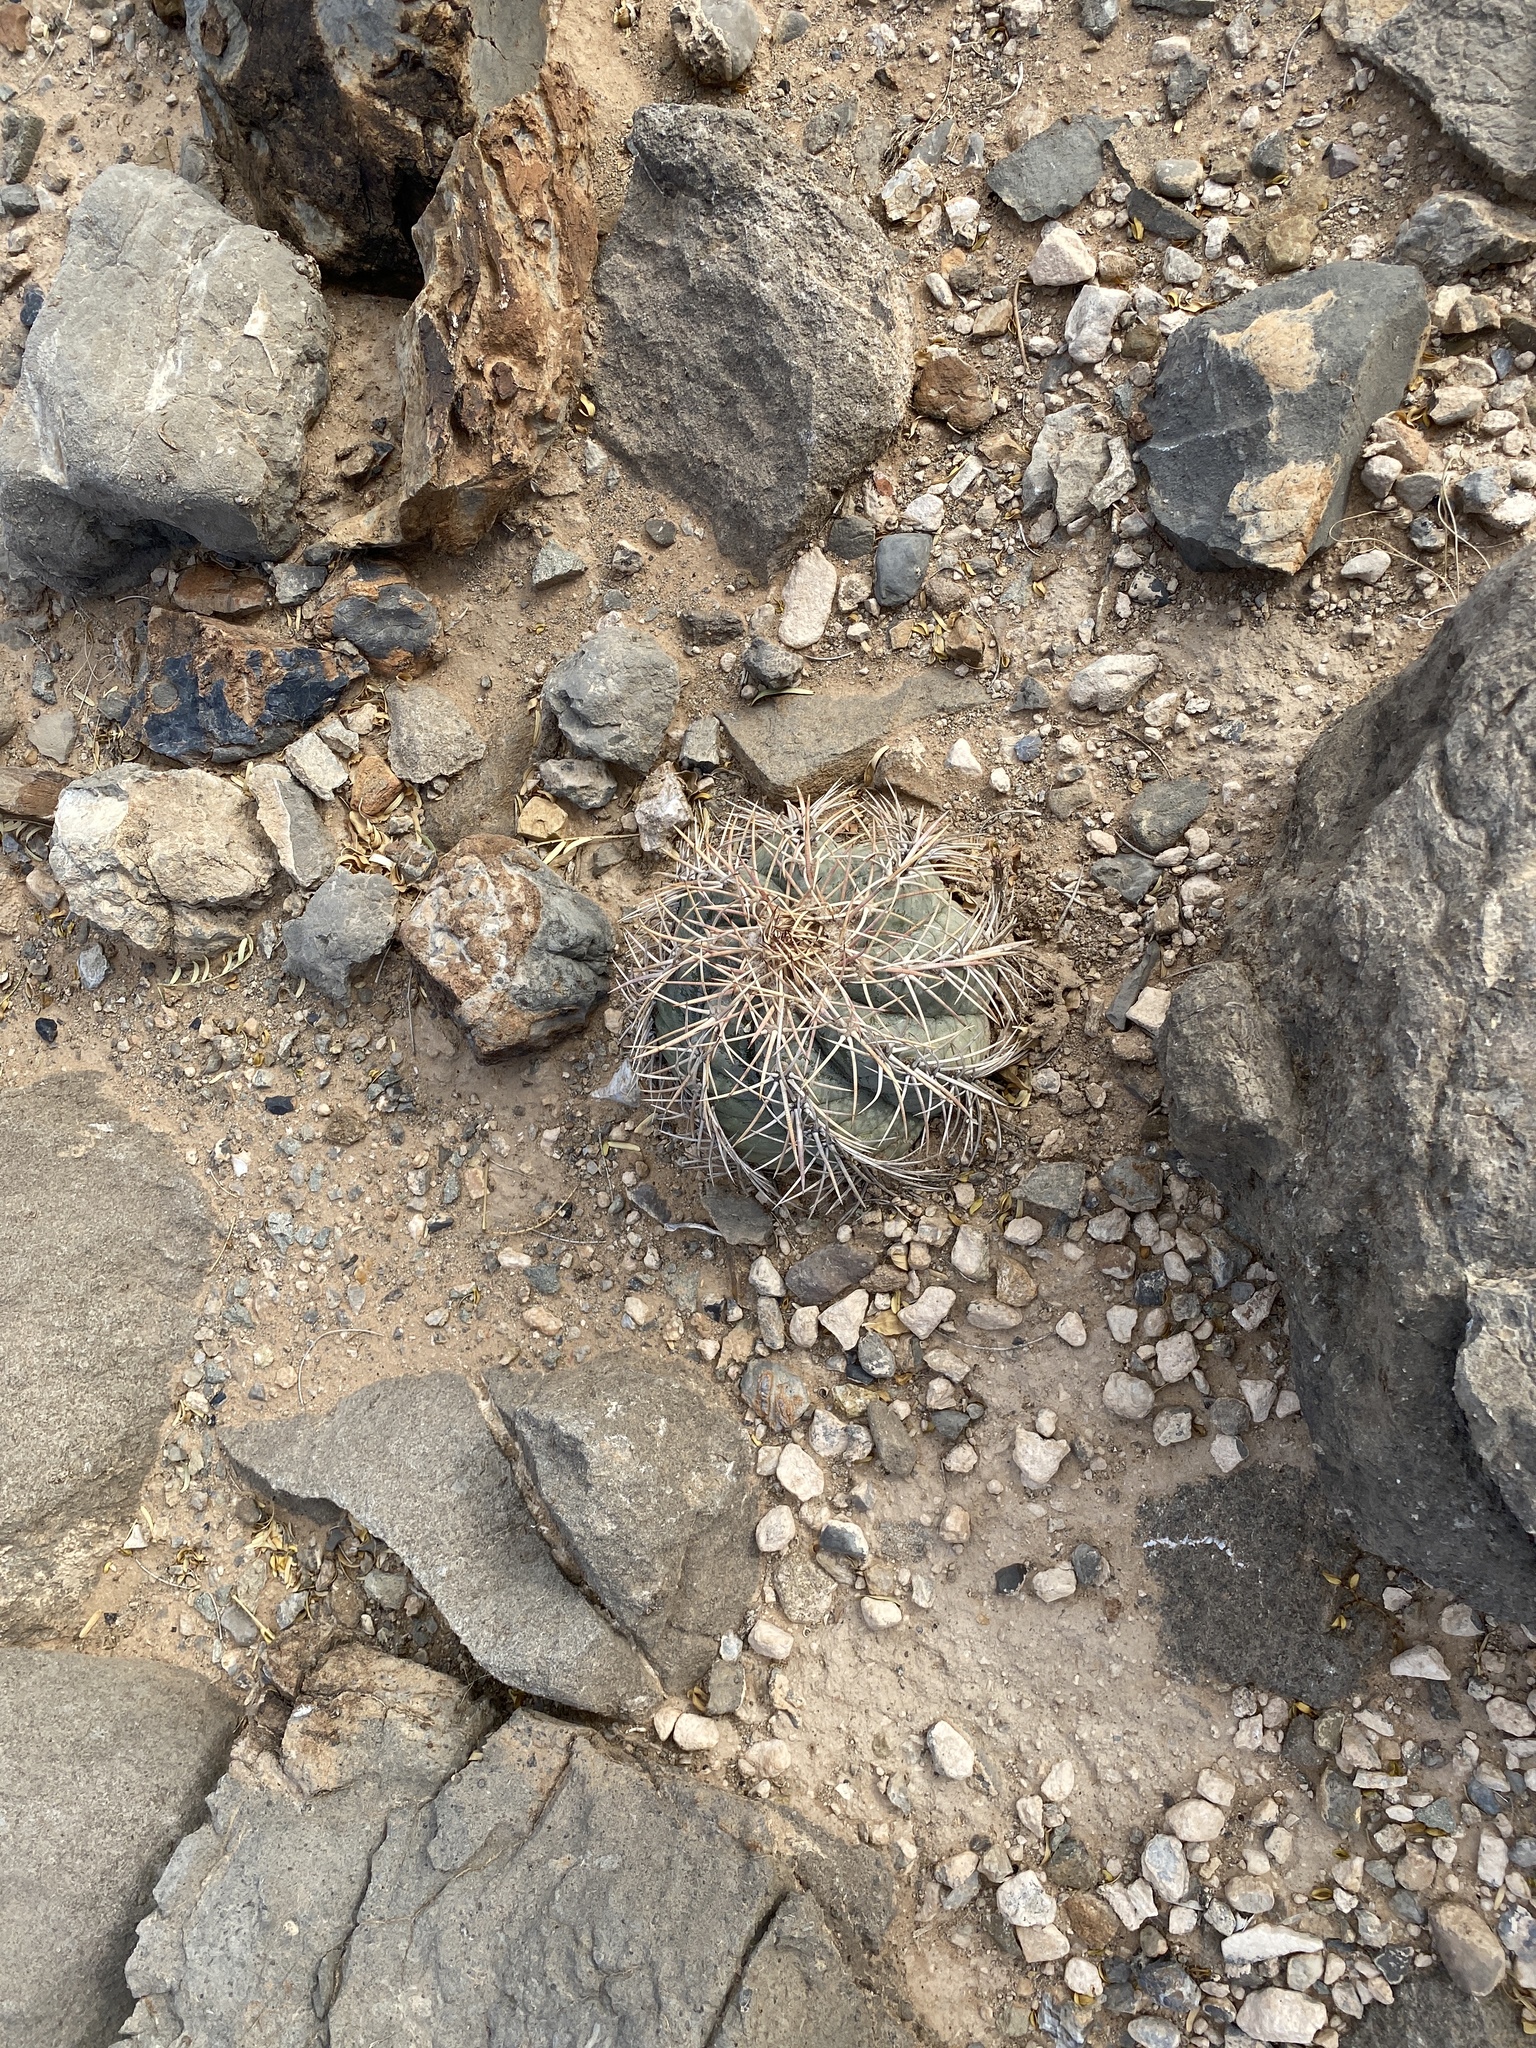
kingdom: Plantae
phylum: Tracheophyta
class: Magnoliopsida
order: Caryophyllales
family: Cactaceae
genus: Echinocactus
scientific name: Echinocactus horizonthalonius
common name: Devilshead
